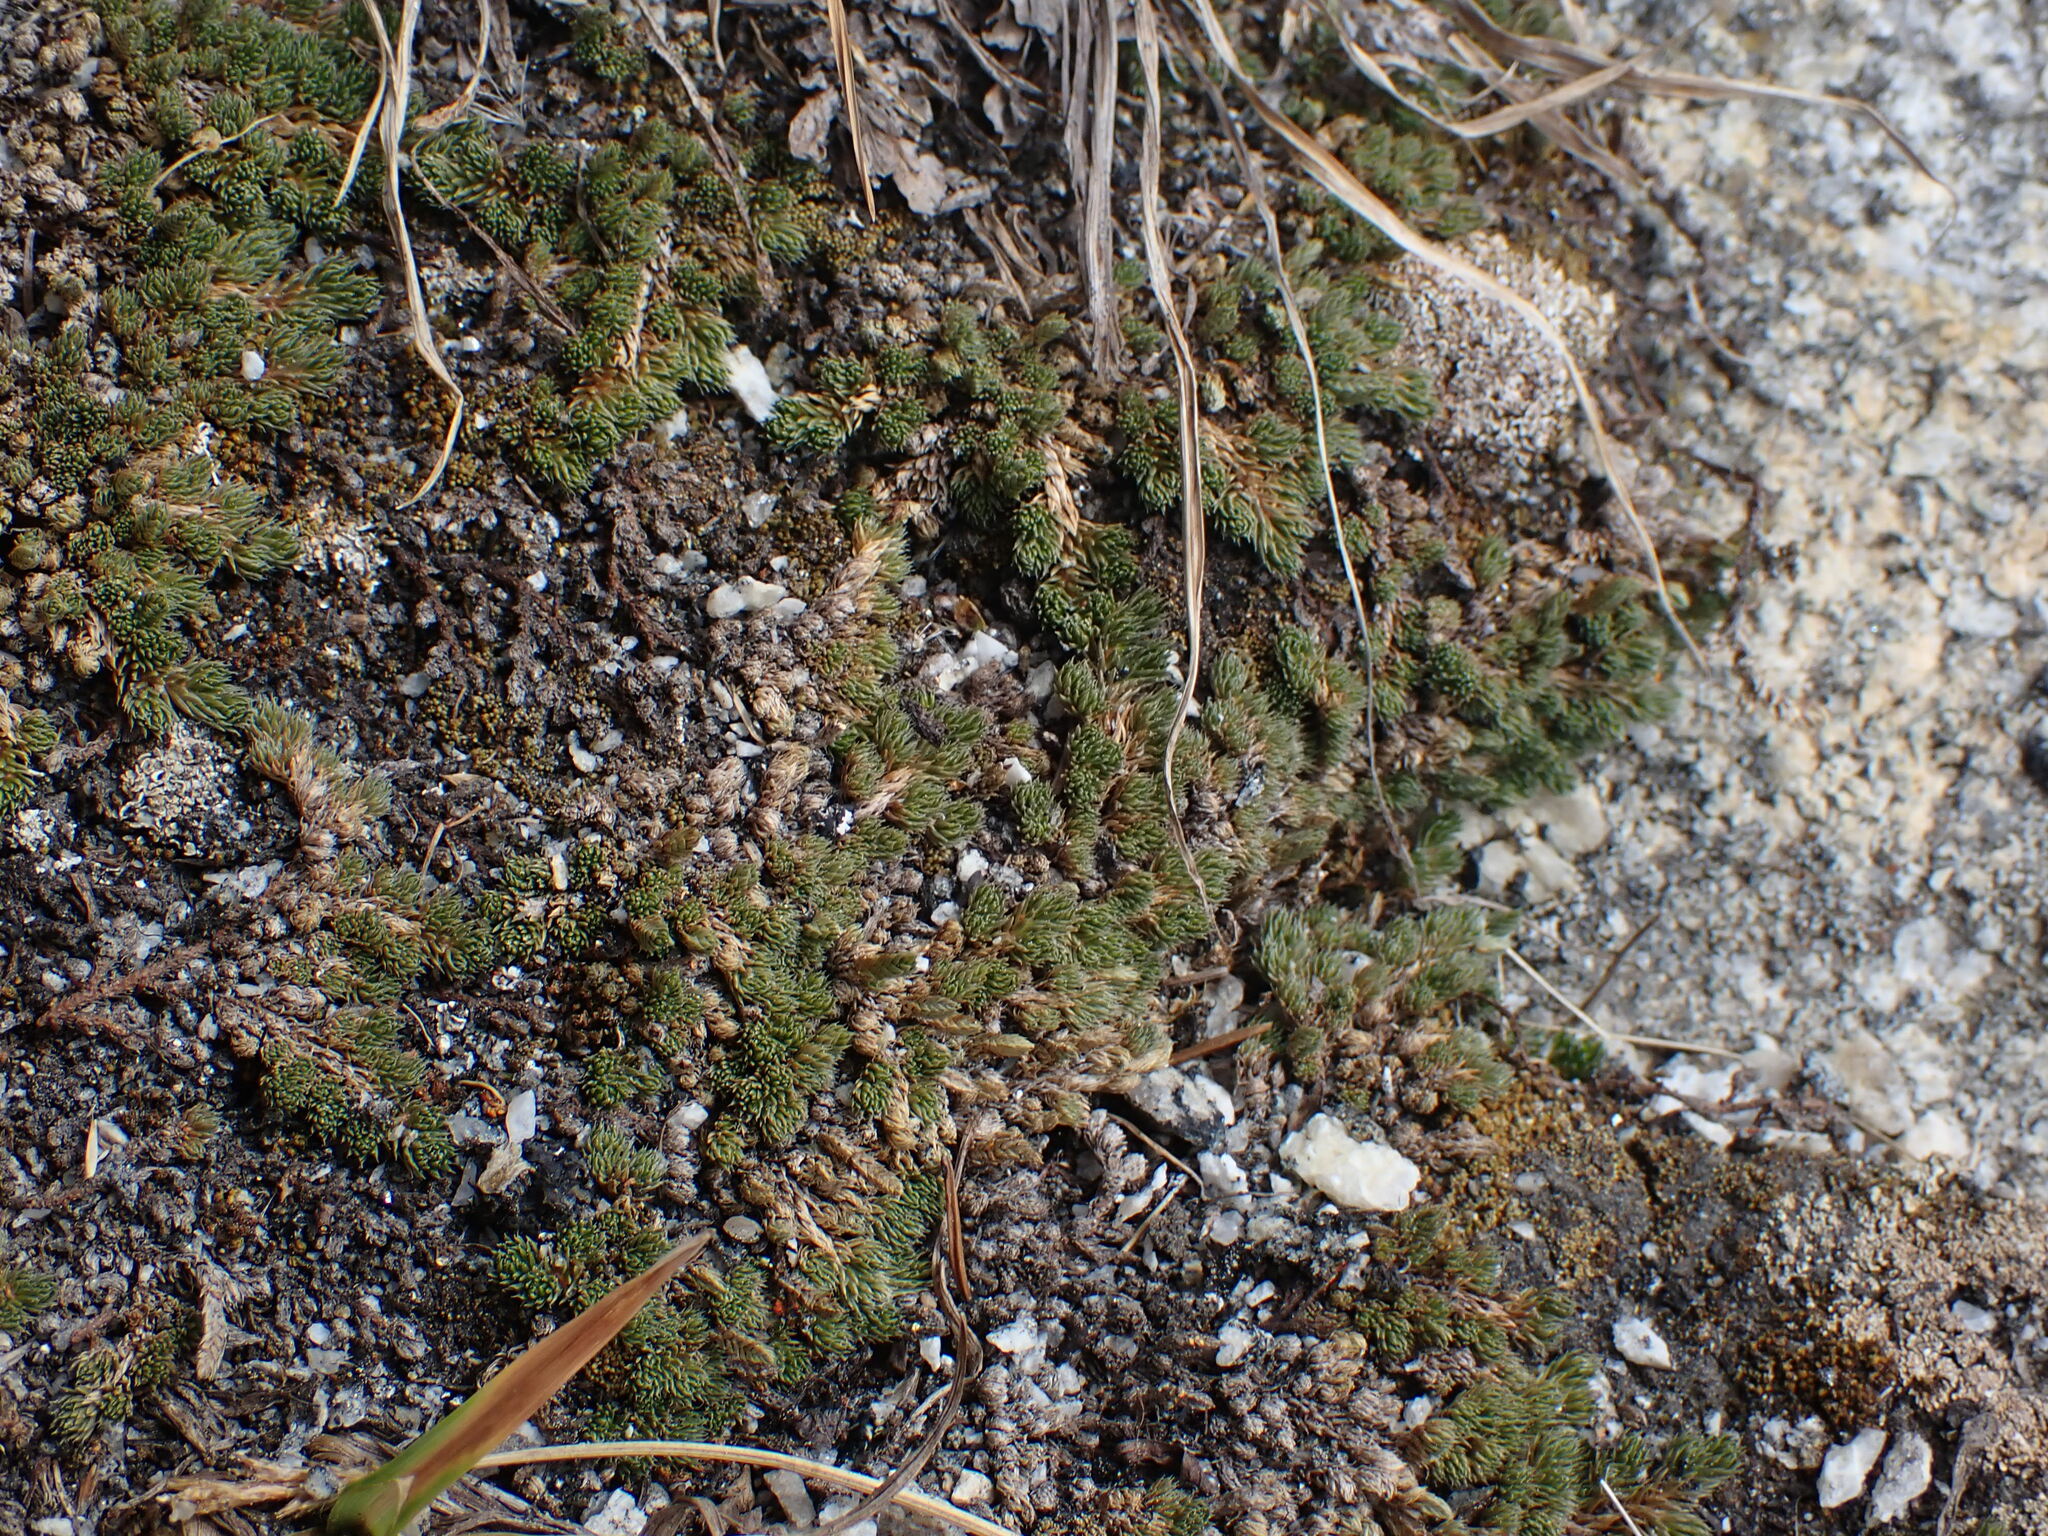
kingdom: Plantae
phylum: Tracheophyta
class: Lycopodiopsida
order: Selaginellales
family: Selaginellaceae
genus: Selaginella
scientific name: Selaginella densa
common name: Mountain spike-moss
